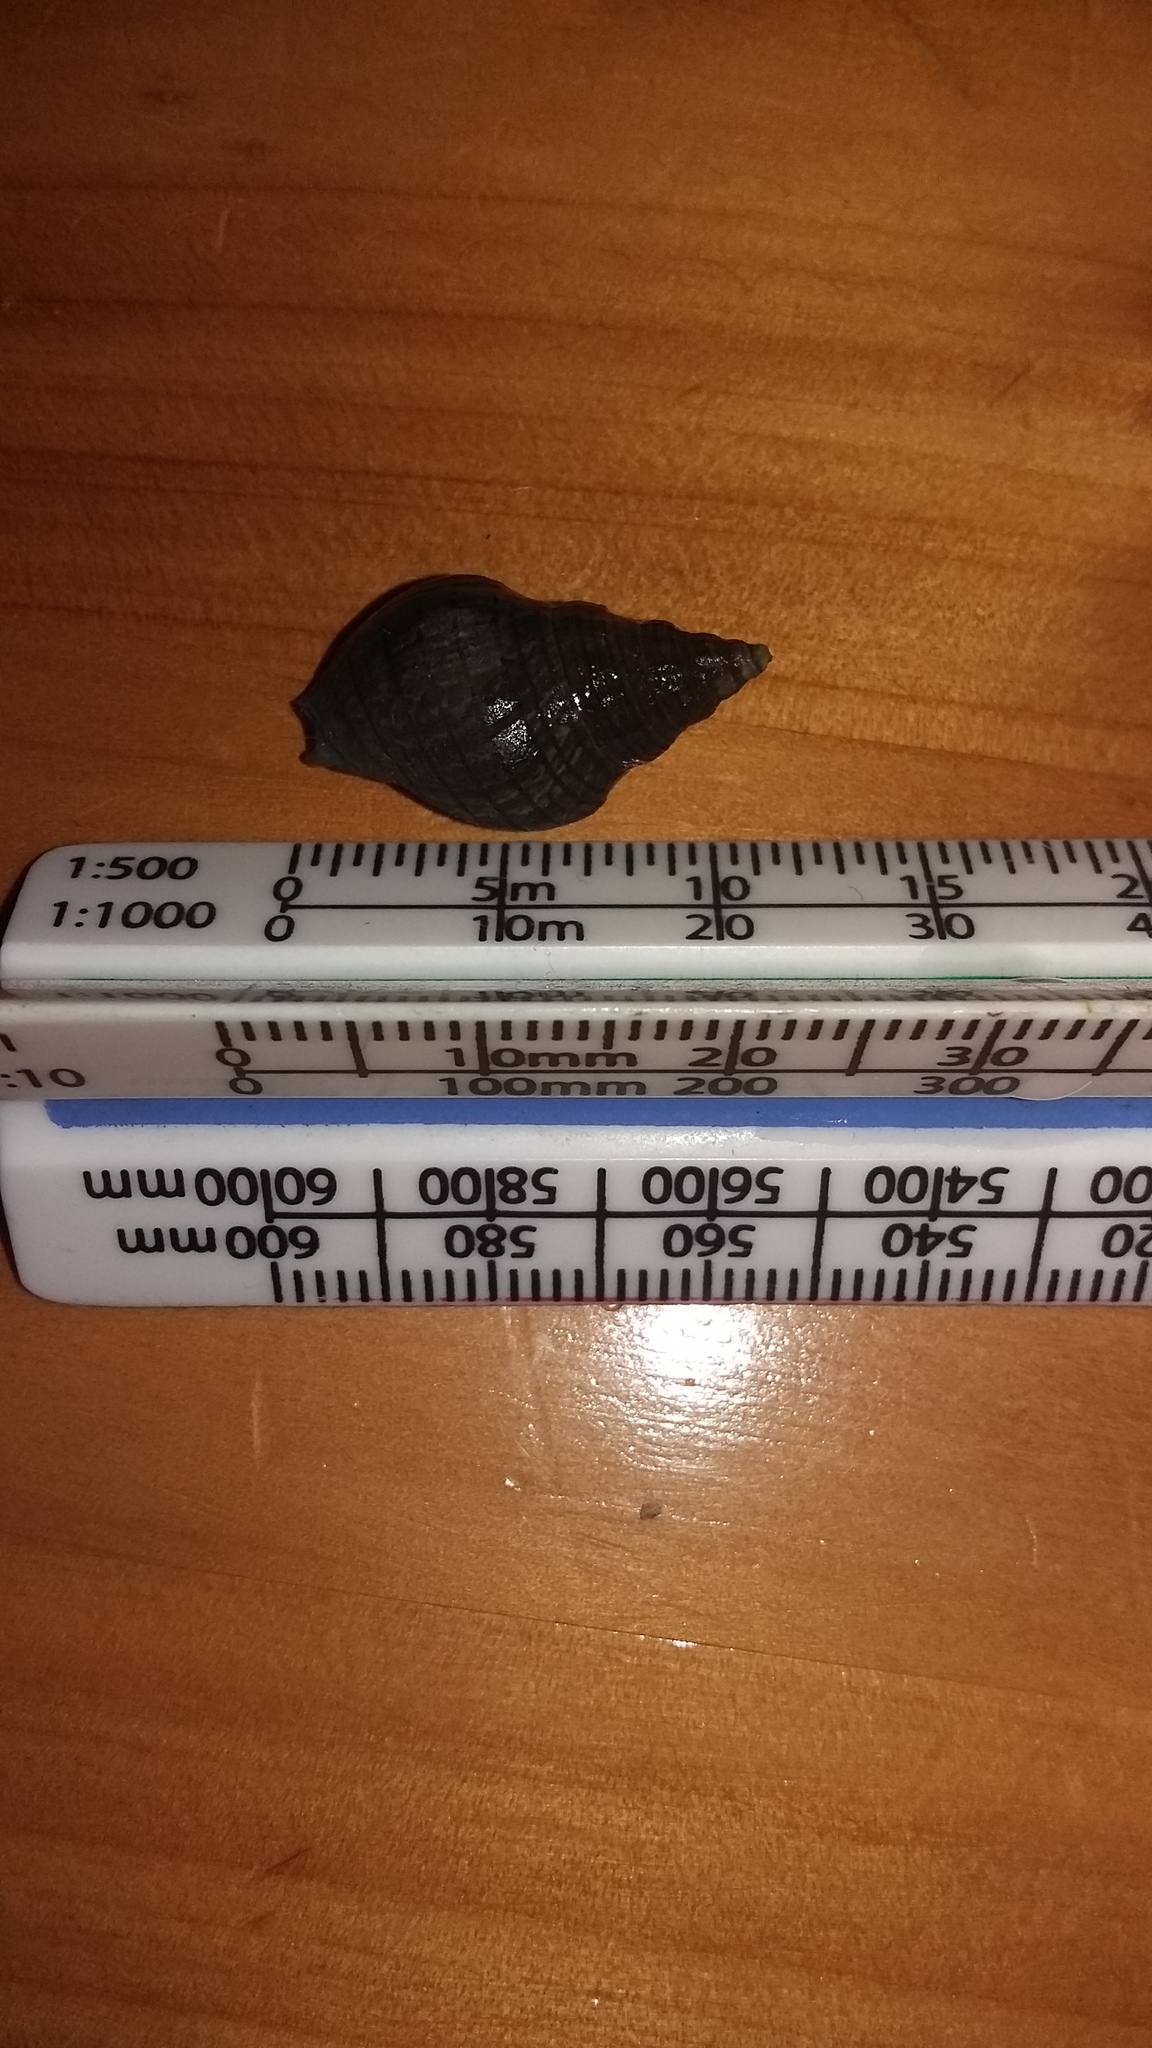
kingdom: Animalia
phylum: Mollusca
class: Gastropoda
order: Neogastropoda
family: Cominellidae
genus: Cominella
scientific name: Cominella virgata
